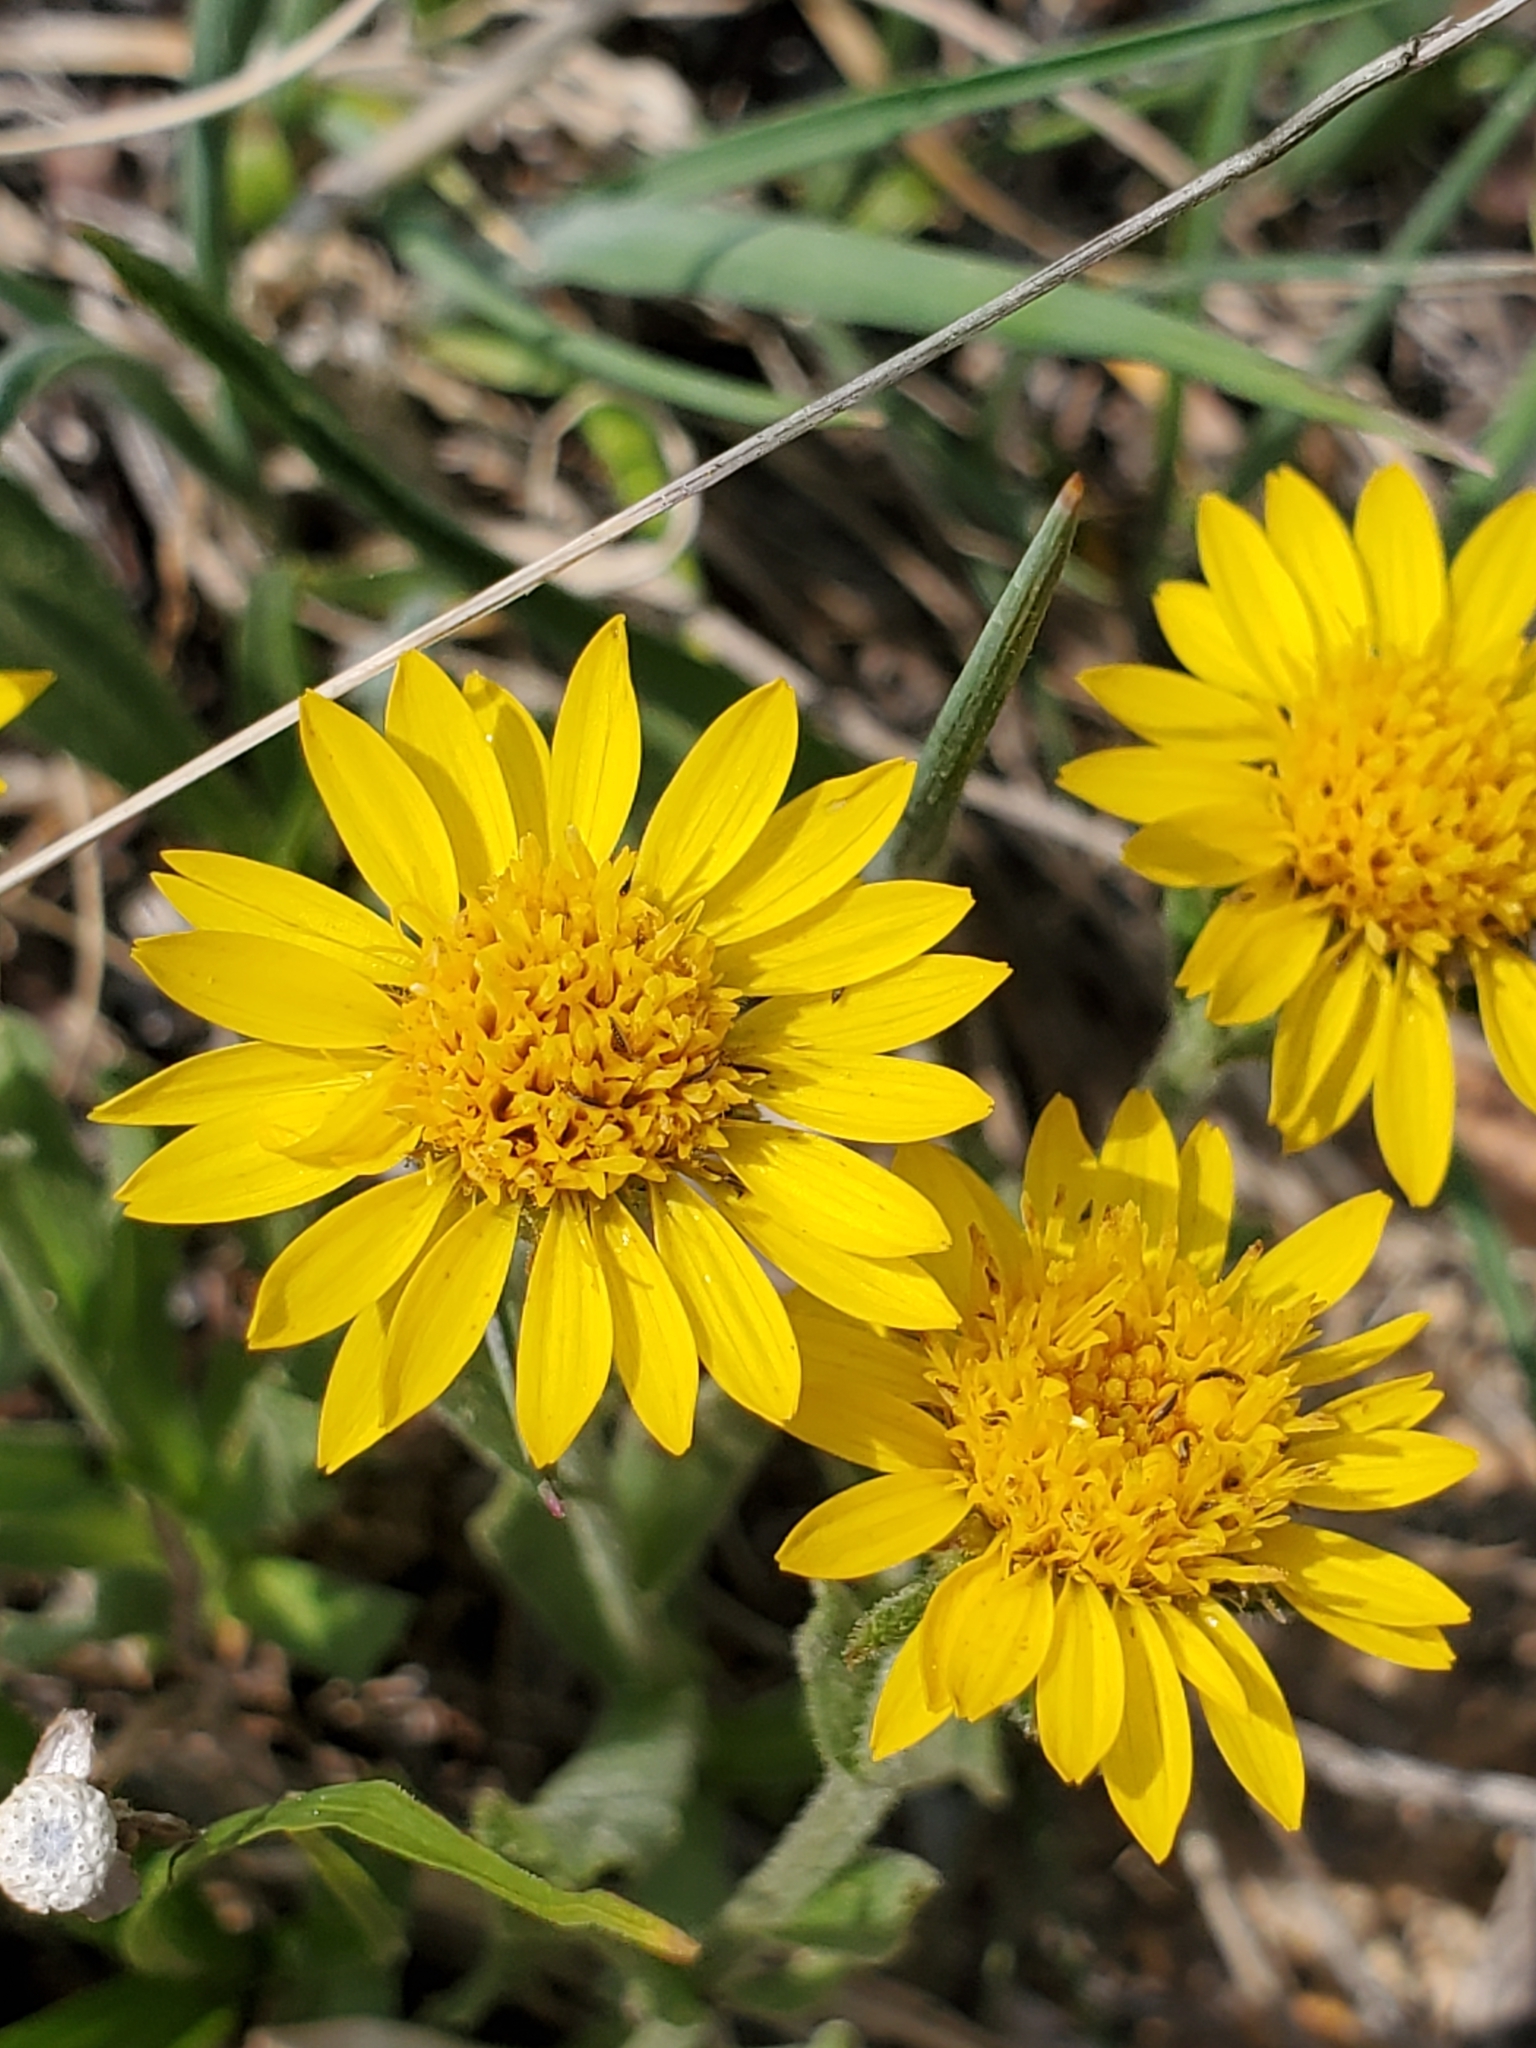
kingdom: Plantae
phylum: Tracheophyta
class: Magnoliopsida
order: Asterales
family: Asteraceae
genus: Tonestus
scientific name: Tonestus lyallii
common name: Lyall's goldenweed
